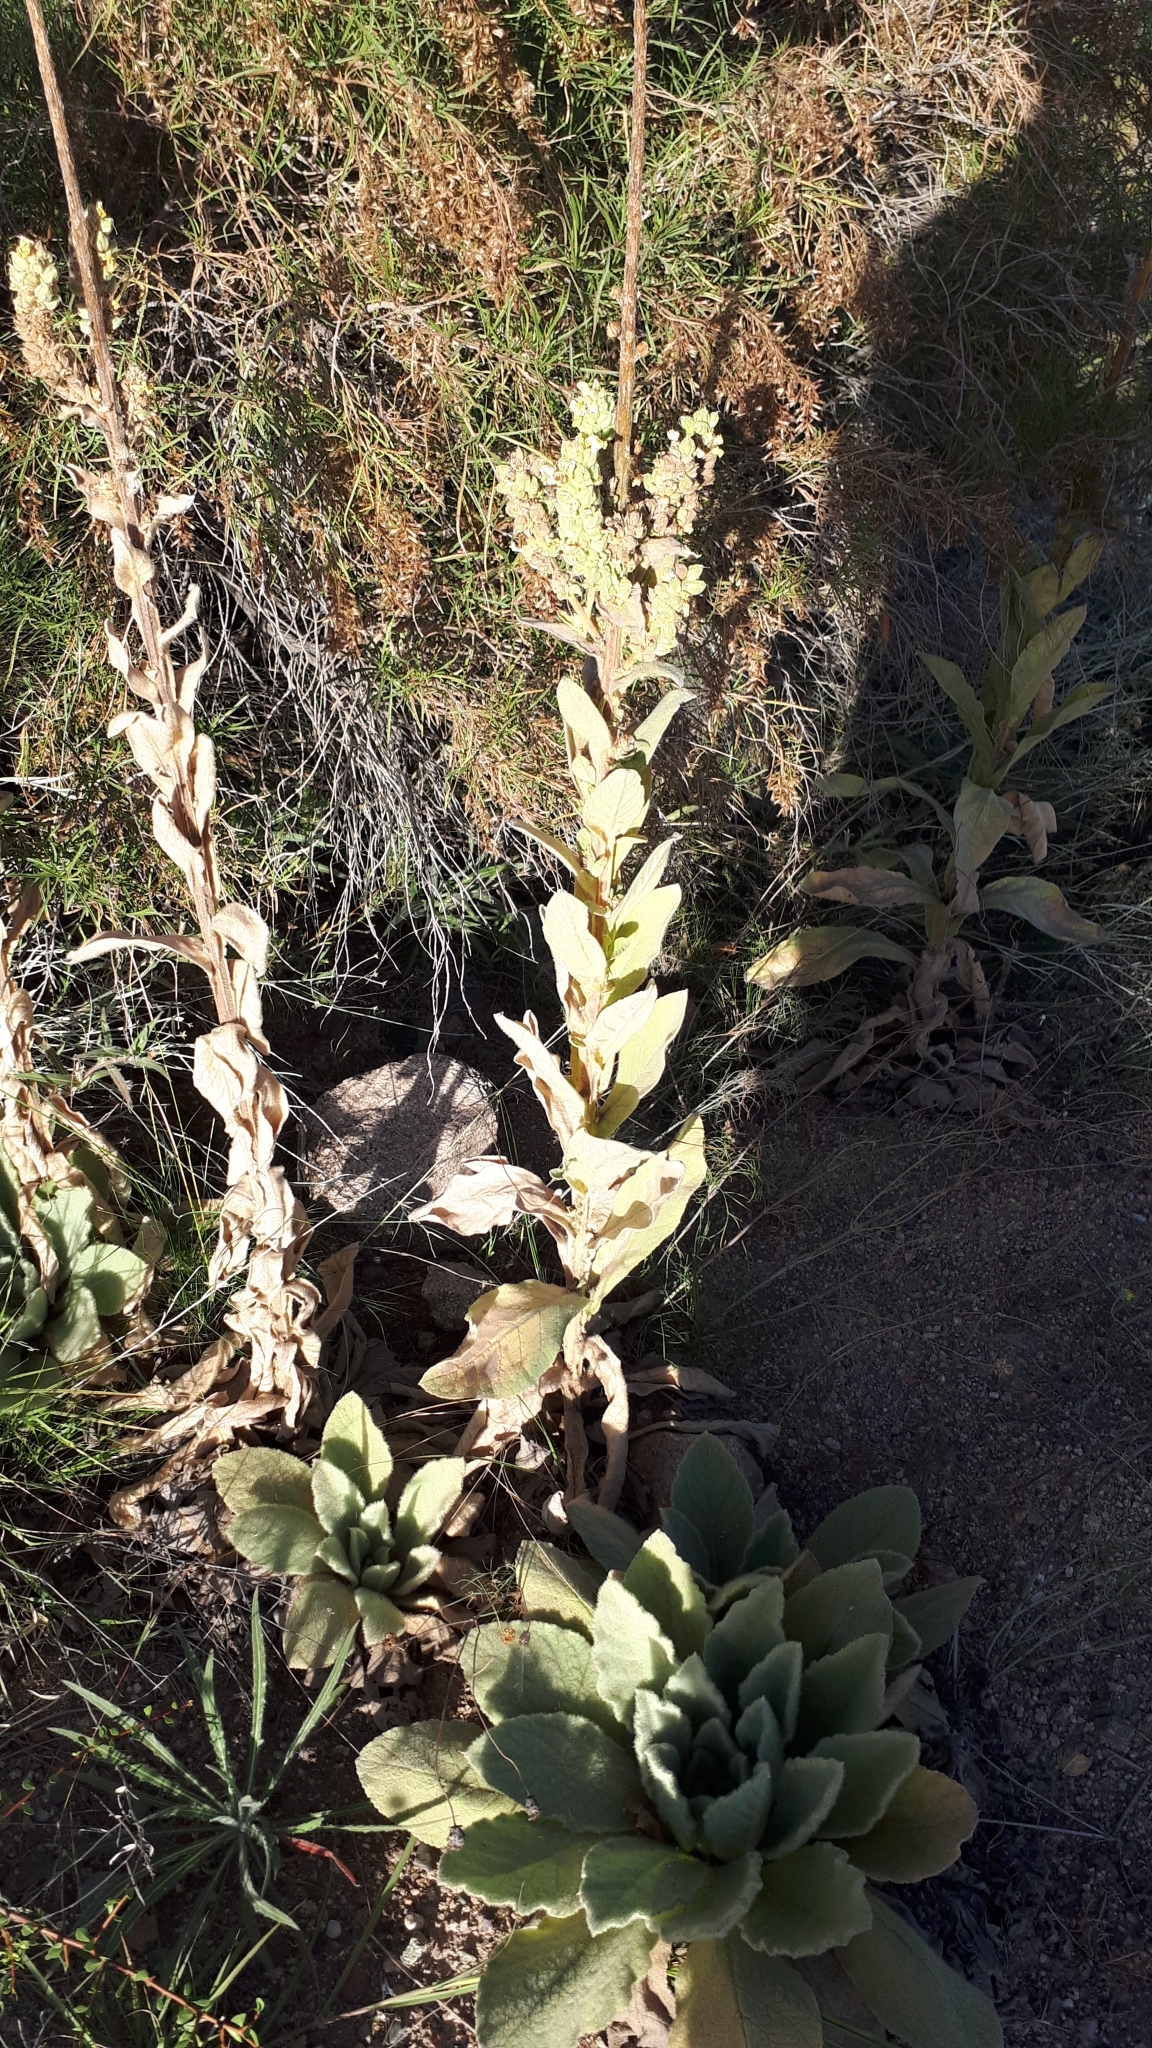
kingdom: Plantae
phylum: Tracheophyta
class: Magnoliopsida
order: Lamiales
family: Scrophulariaceae
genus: Verbascum
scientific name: Verbascum thapsus
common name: Common mullein
